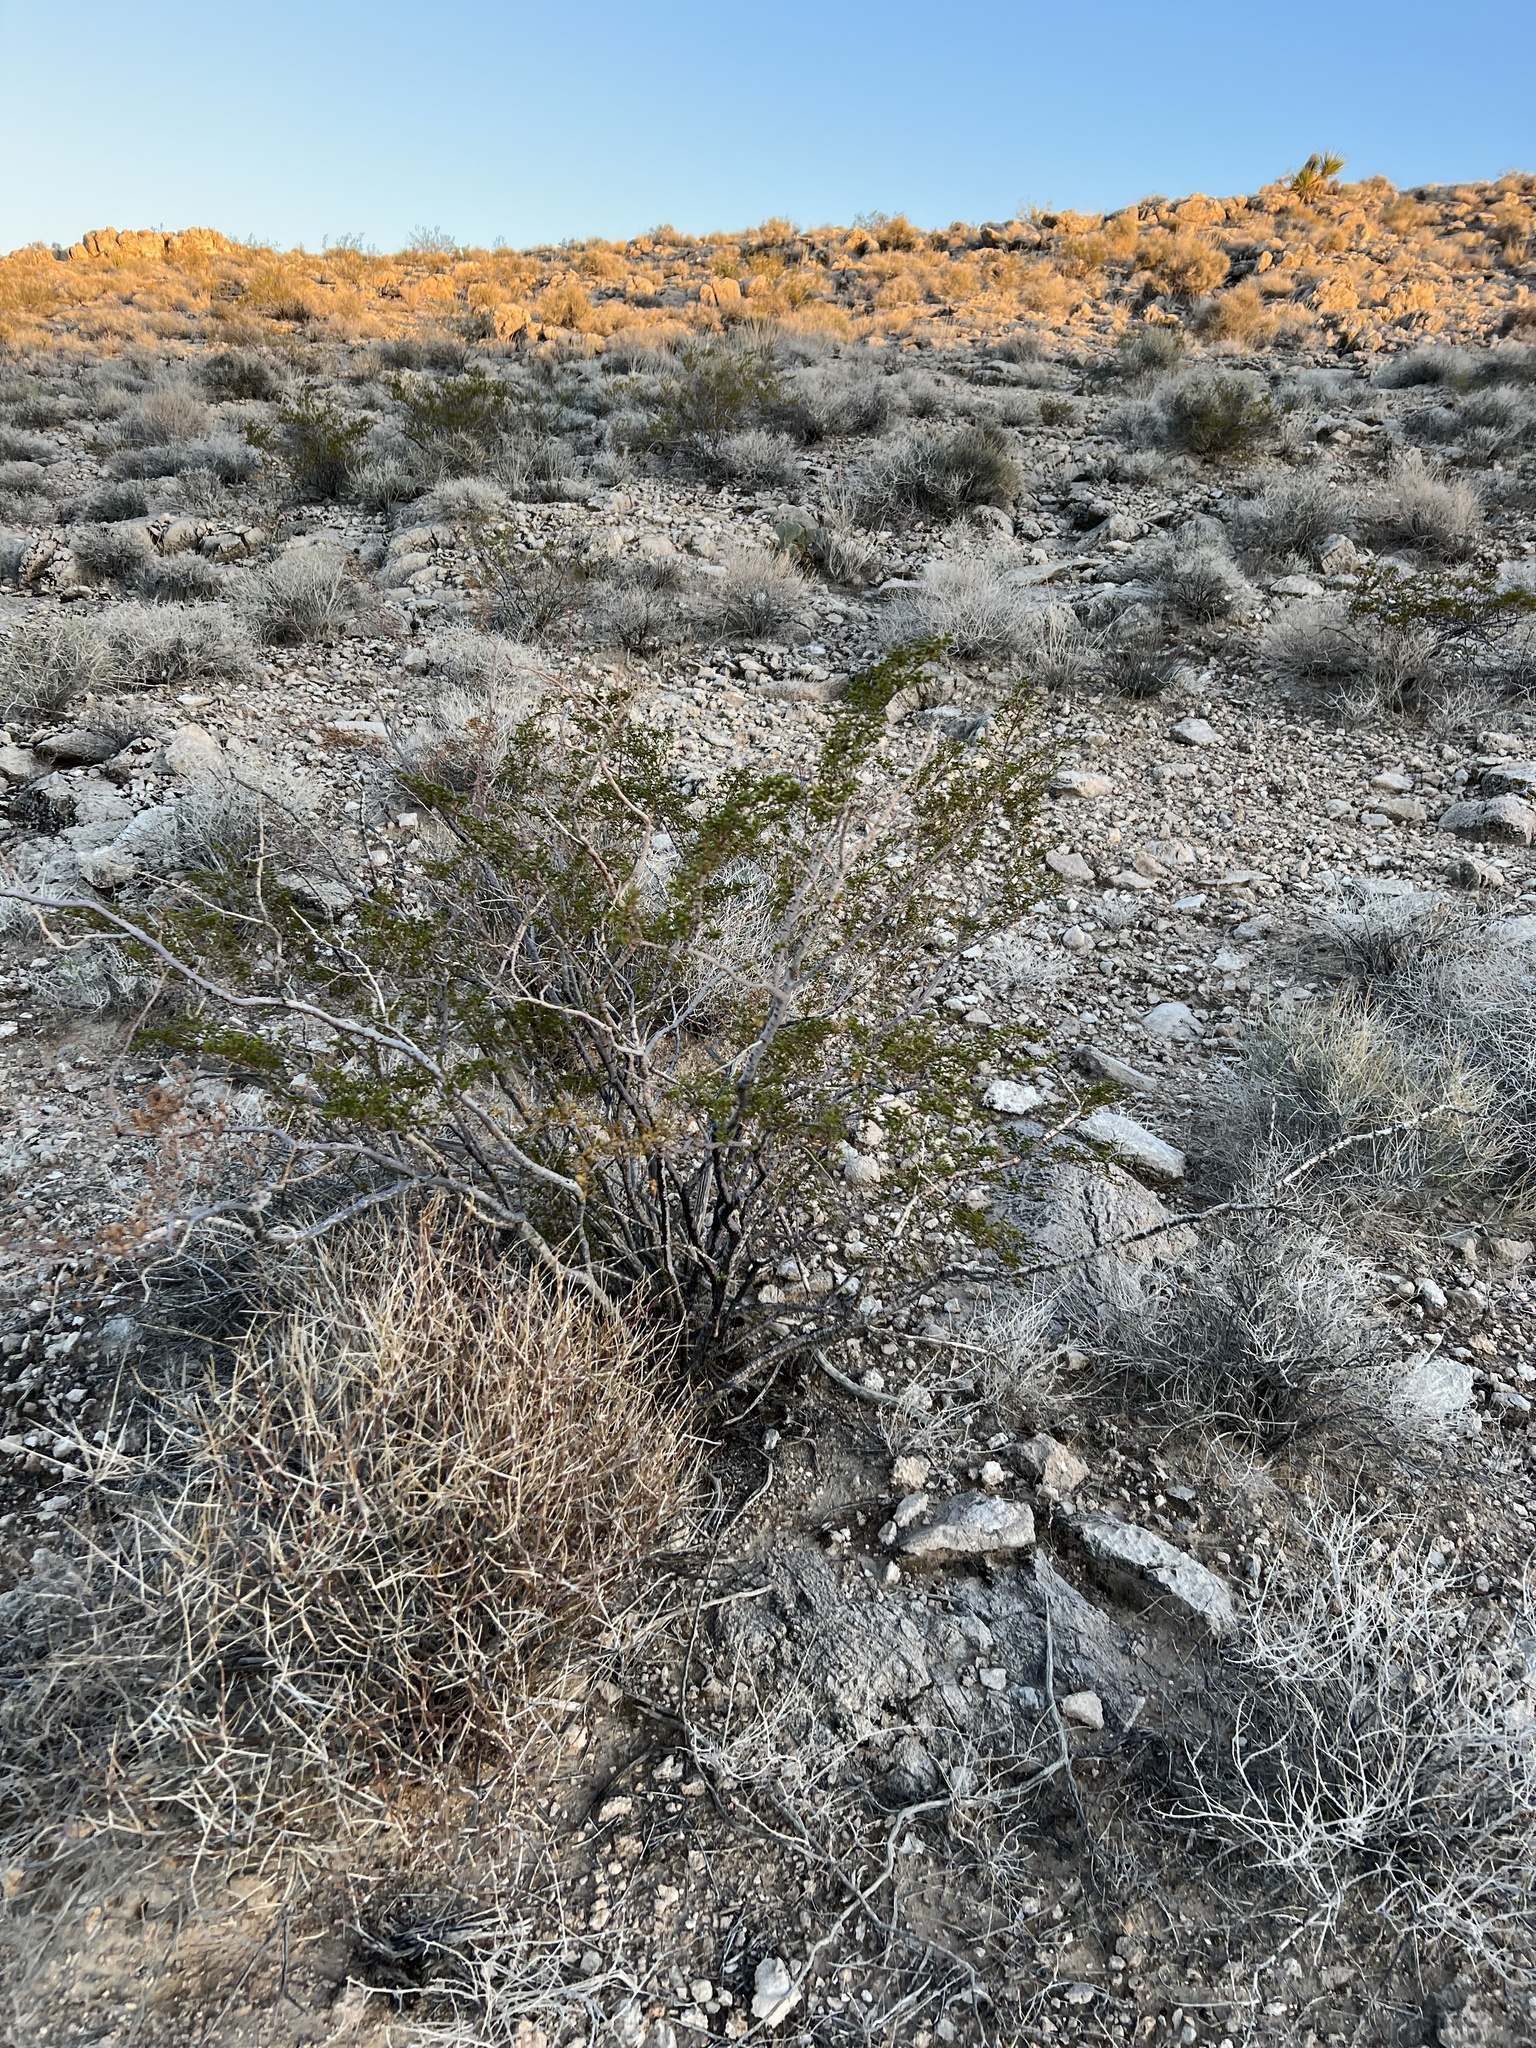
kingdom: Plantae
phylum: Tracheophyta
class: Magnoliopsida
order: Zygophyllales
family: Zygophyllaceae
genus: Larrea
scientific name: Larrea tridentata
